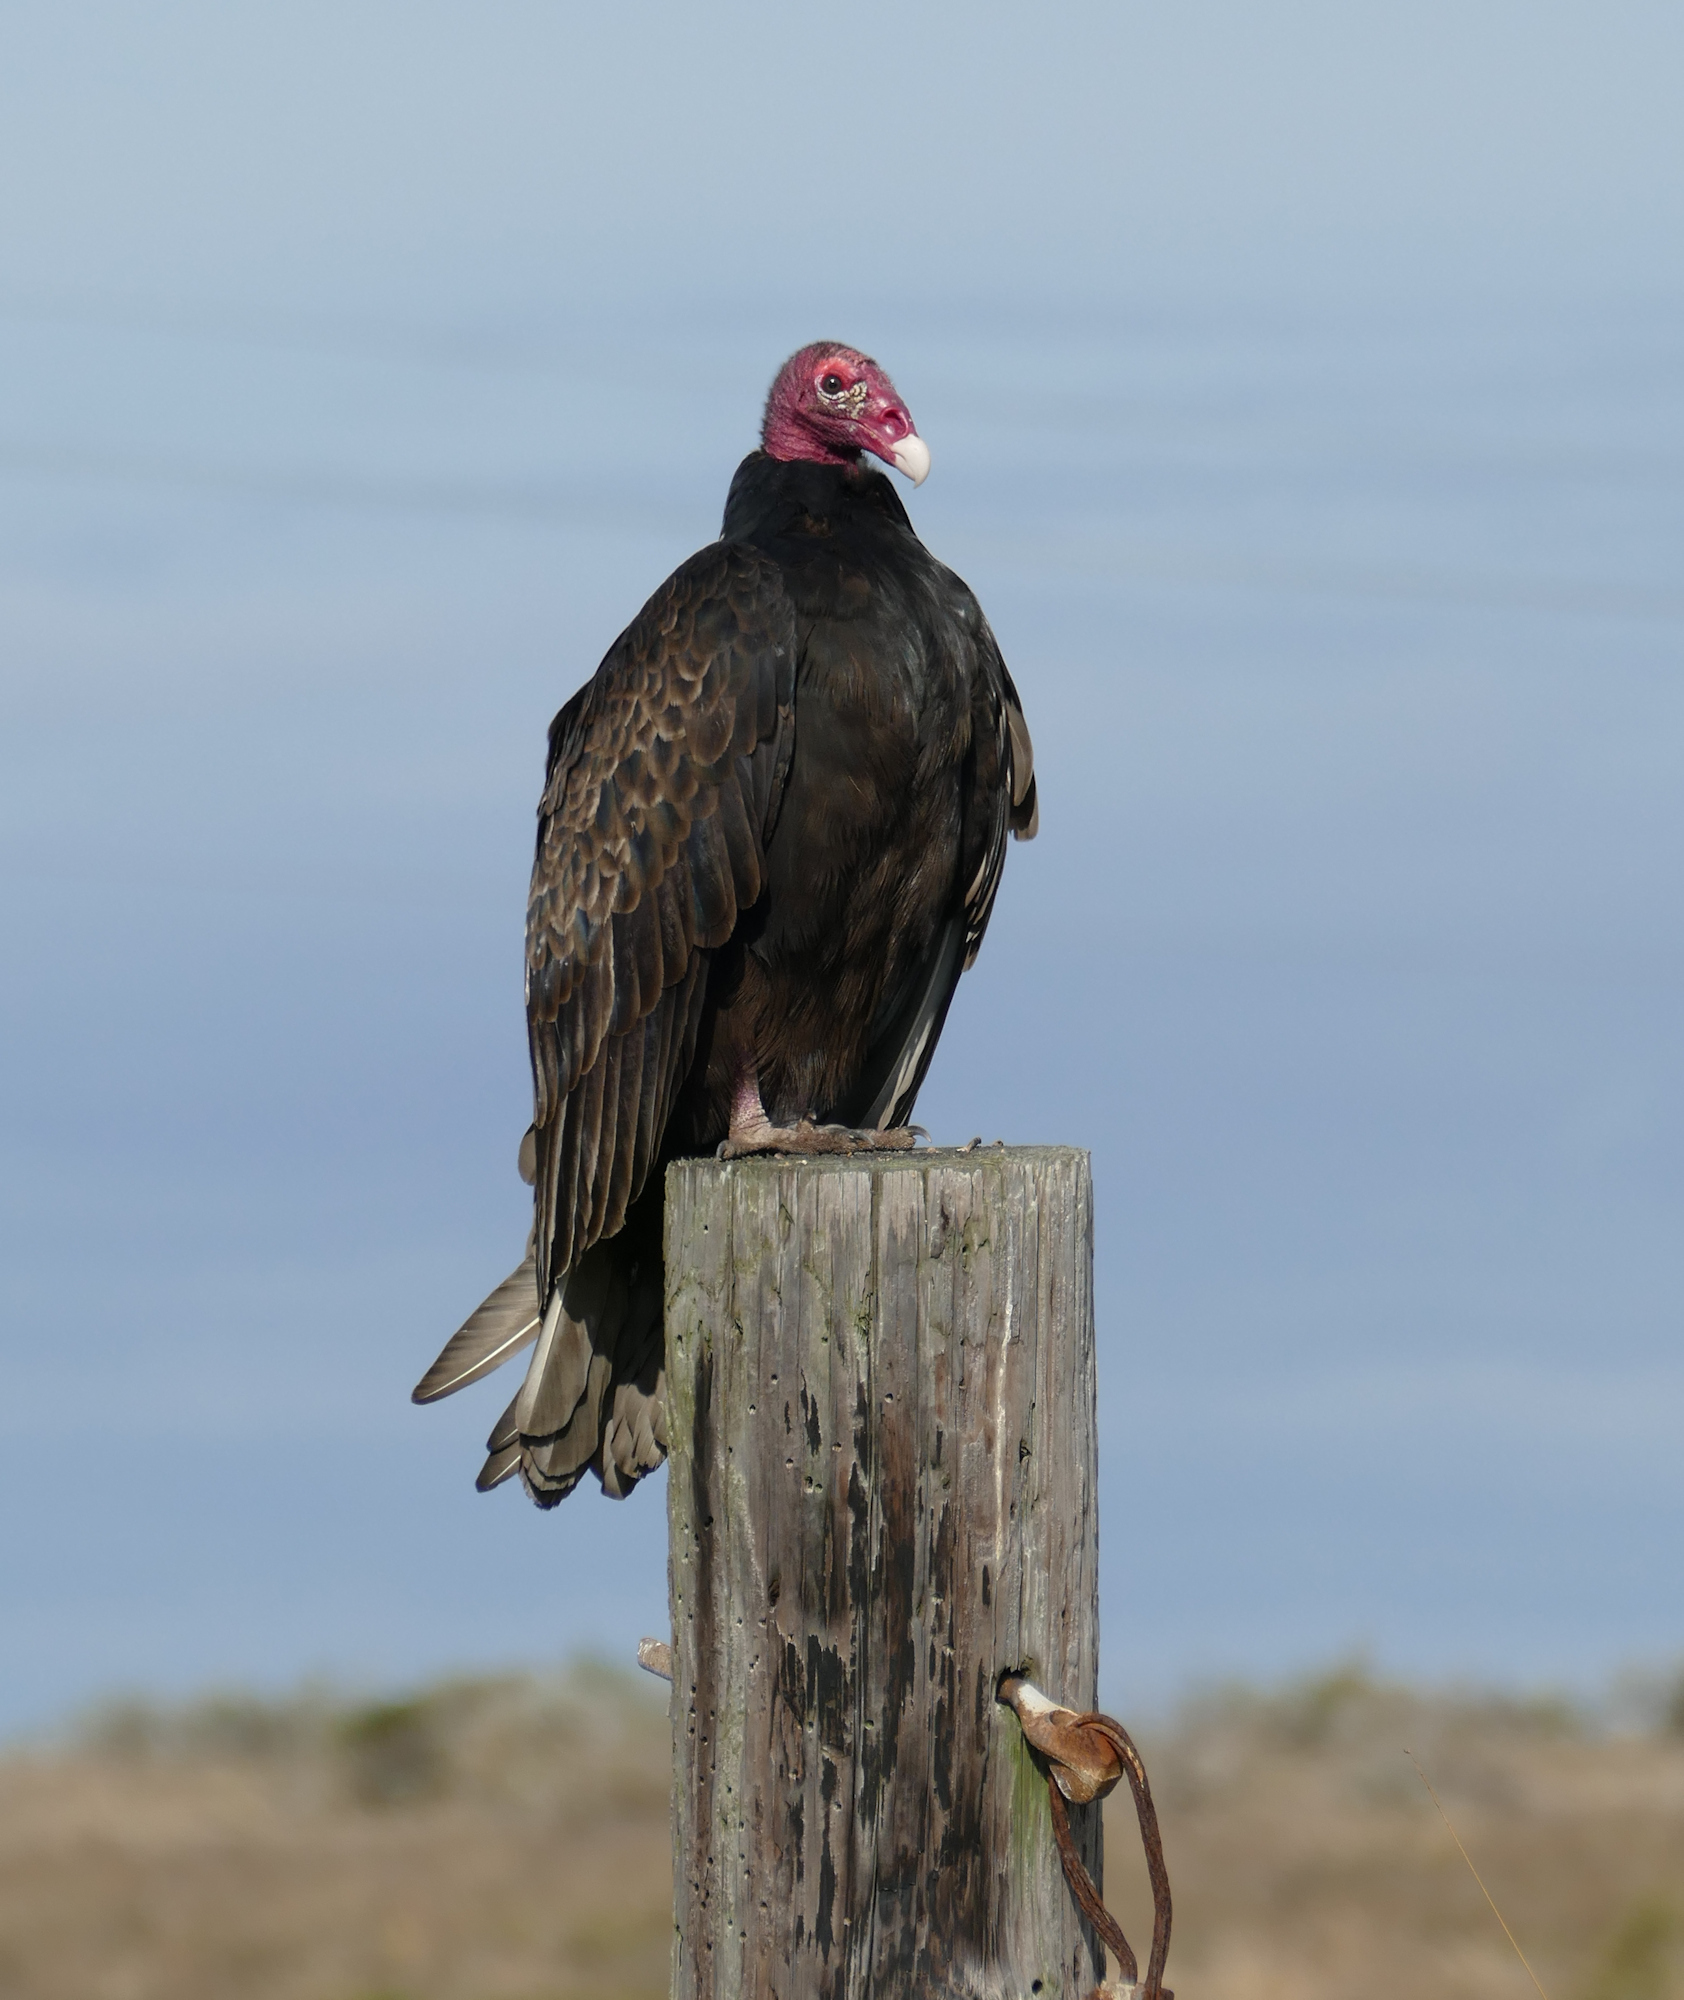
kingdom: Animalia
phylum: Chordata
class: Aves
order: Accipitriformes
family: Cathartidae
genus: Cathartes
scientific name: Cathartes aura
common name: Turkey vulture
